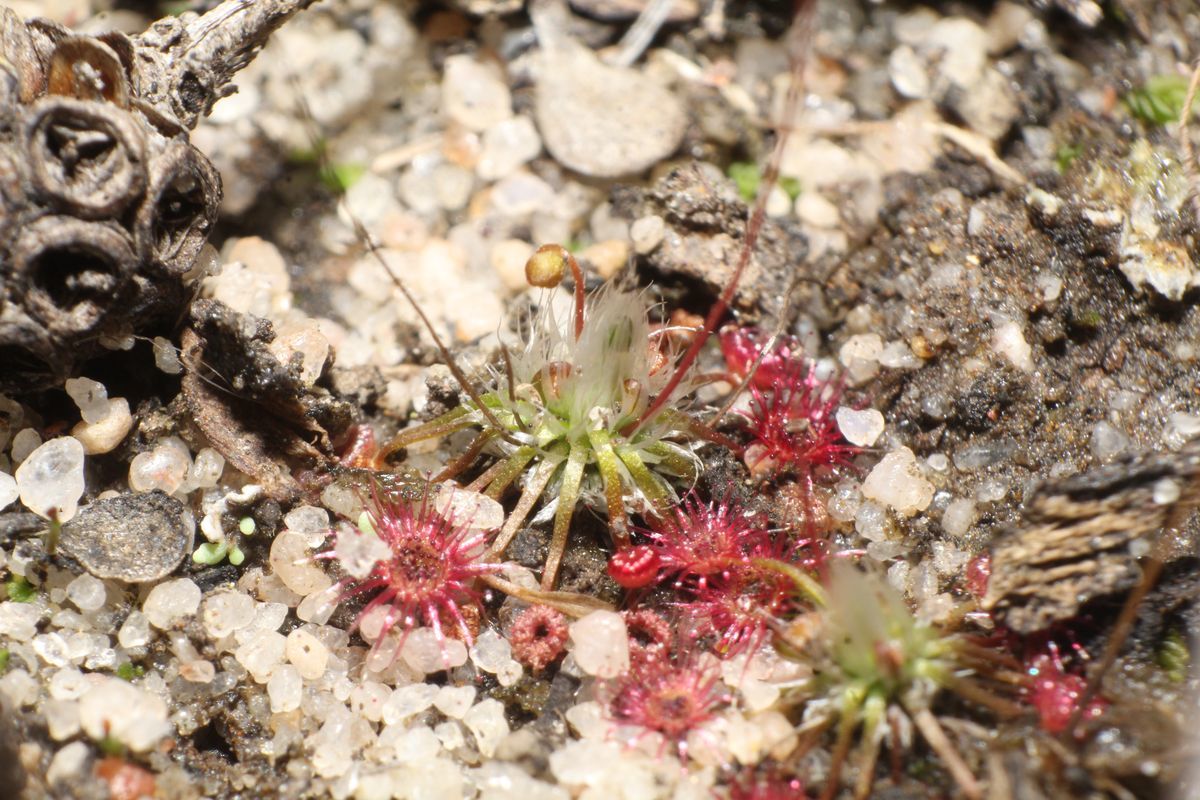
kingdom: Plantae
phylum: Tracheophyta
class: Magnoliopsida
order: Caryophyllales
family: Droseraceae
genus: Drosera
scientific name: Drosera occidentalis
